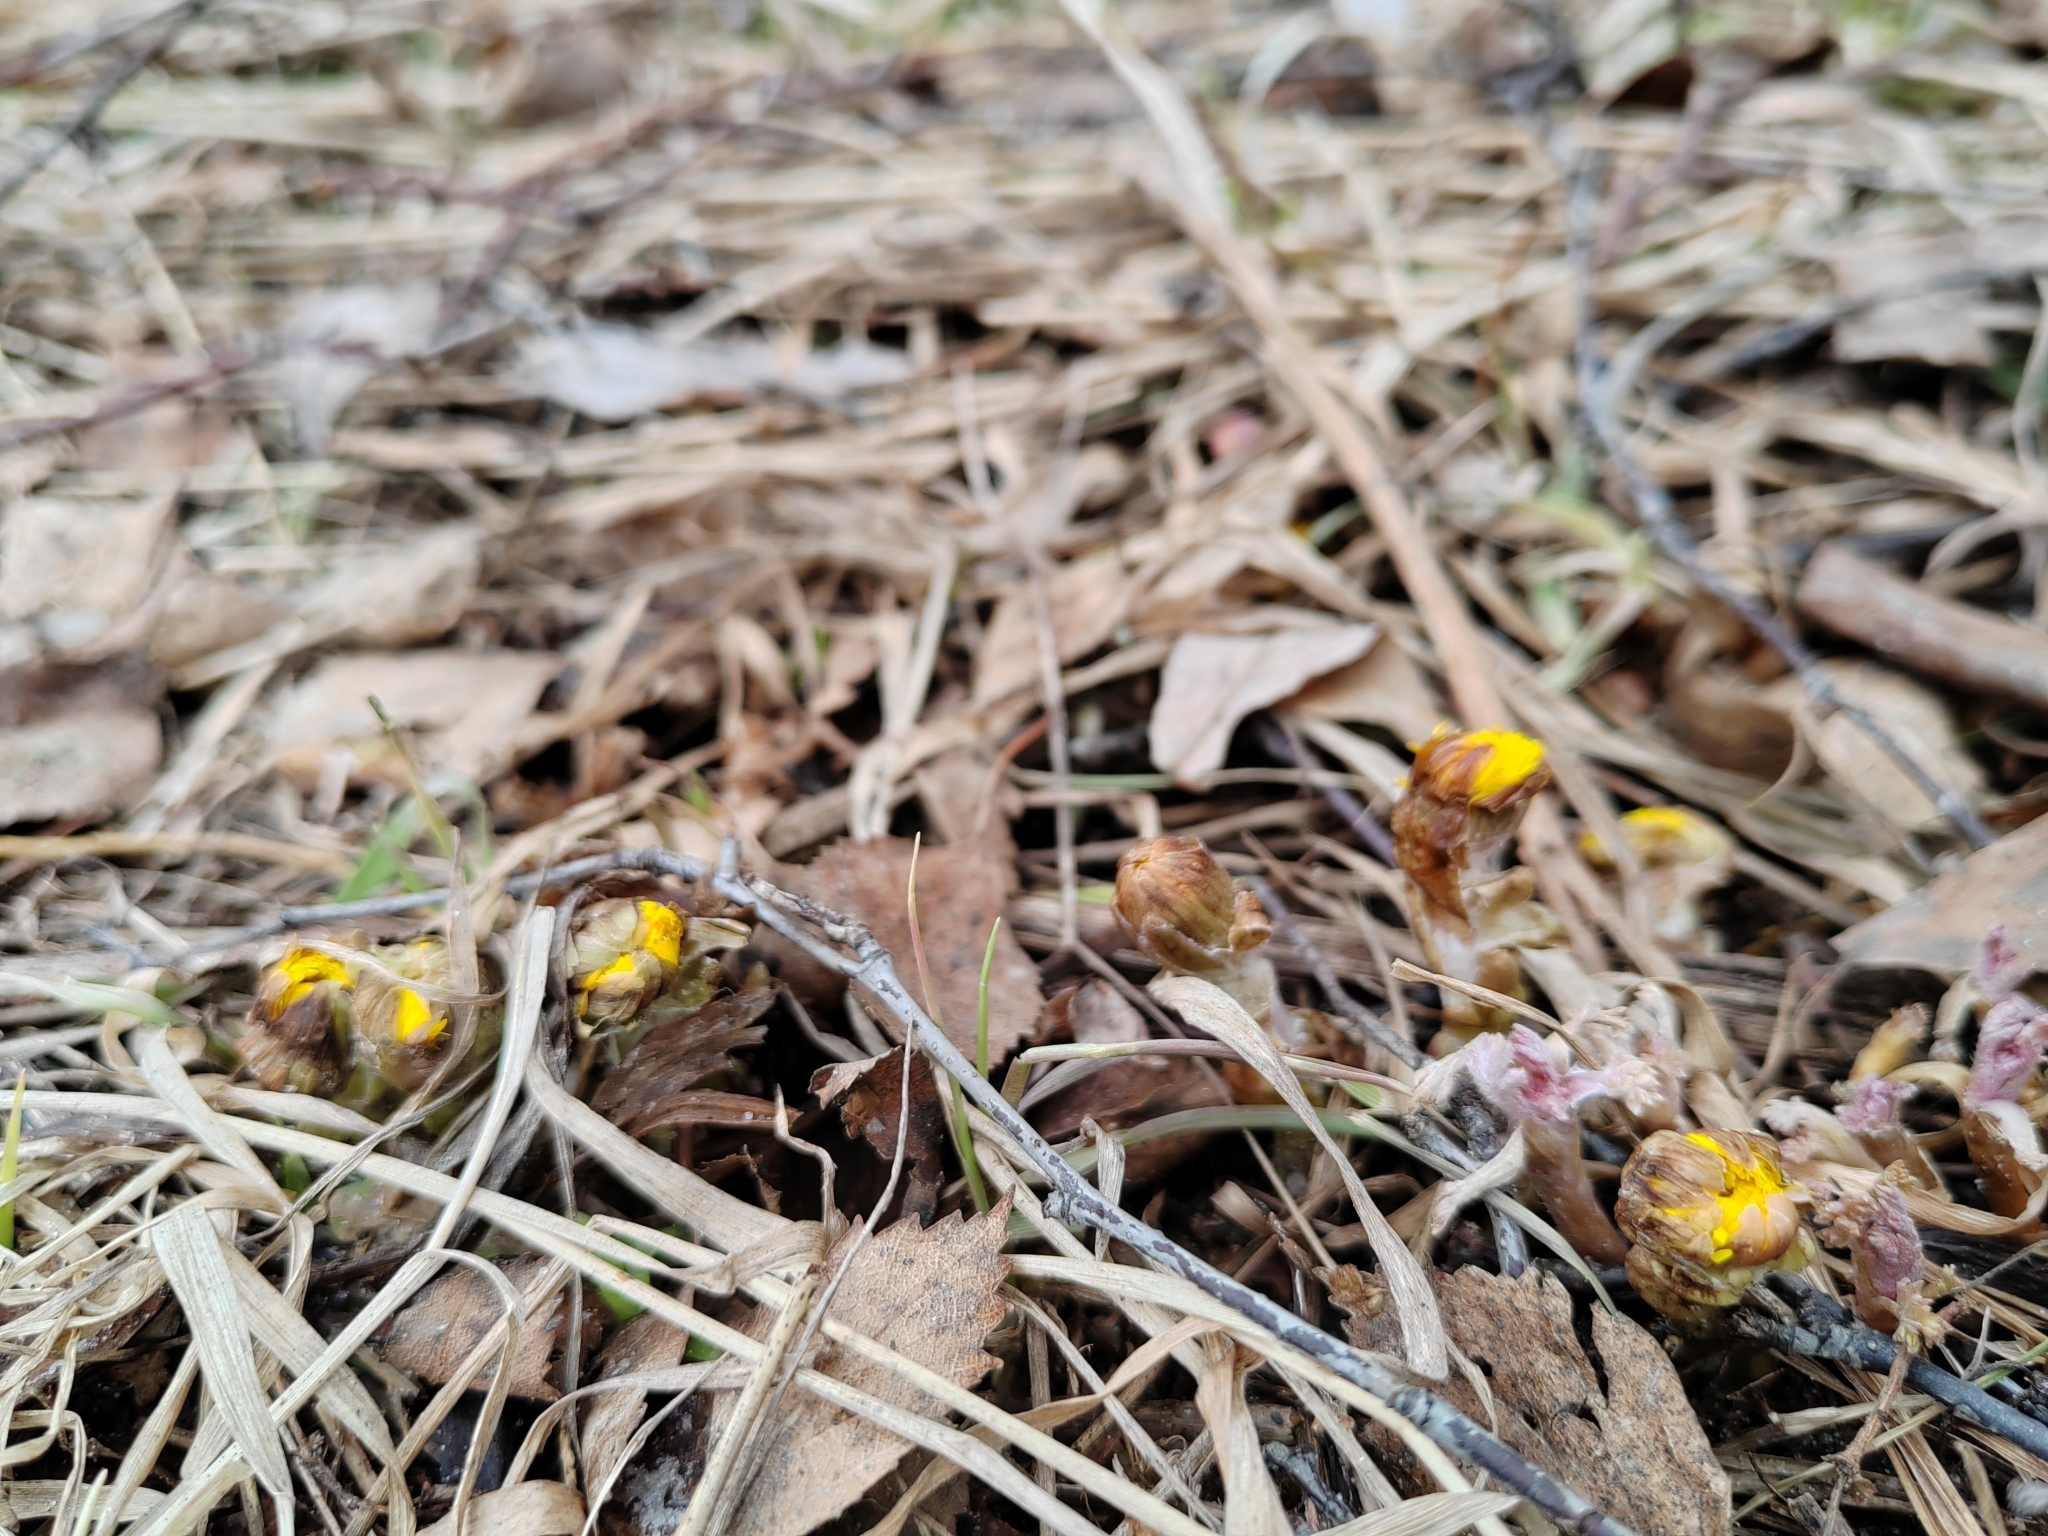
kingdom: Plantae
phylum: Tracheophyta
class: Magnoliopsida
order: Asterales
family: Asteraceae
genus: Tussilago
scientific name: Tussilago farfara
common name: Coltsfoot
